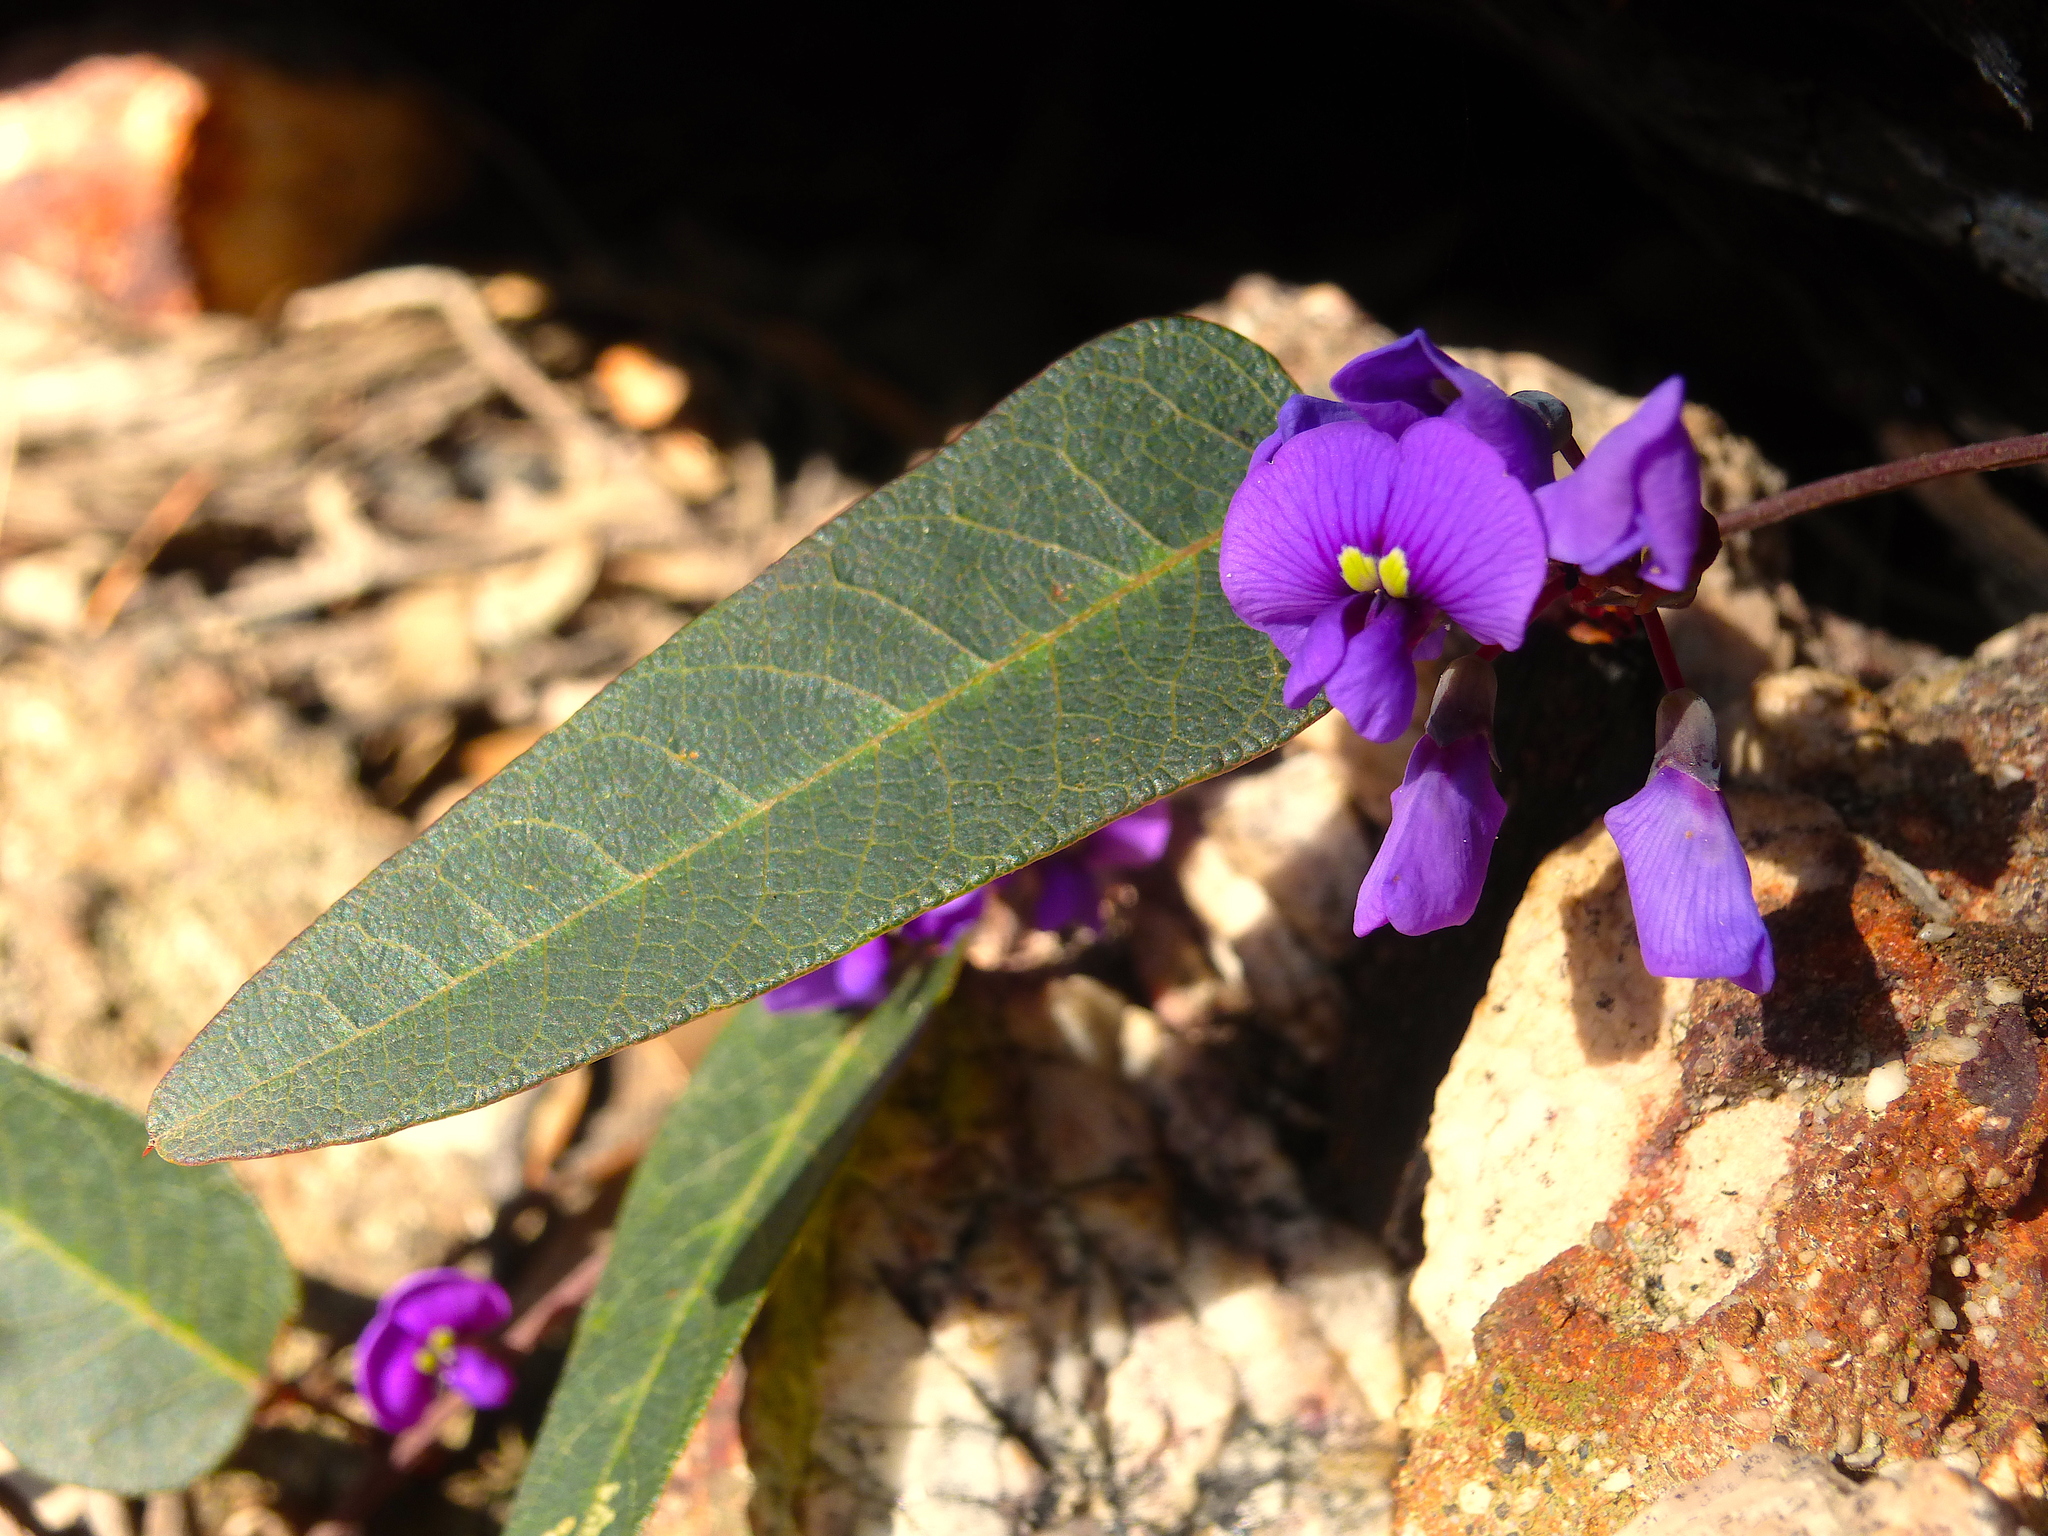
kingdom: Plantae
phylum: Tracheophyta
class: Magnoliopsida
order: Fabales
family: Fabaceae
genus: Hardenbergia
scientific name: Hardenbergia violacea
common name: Coral-pea
